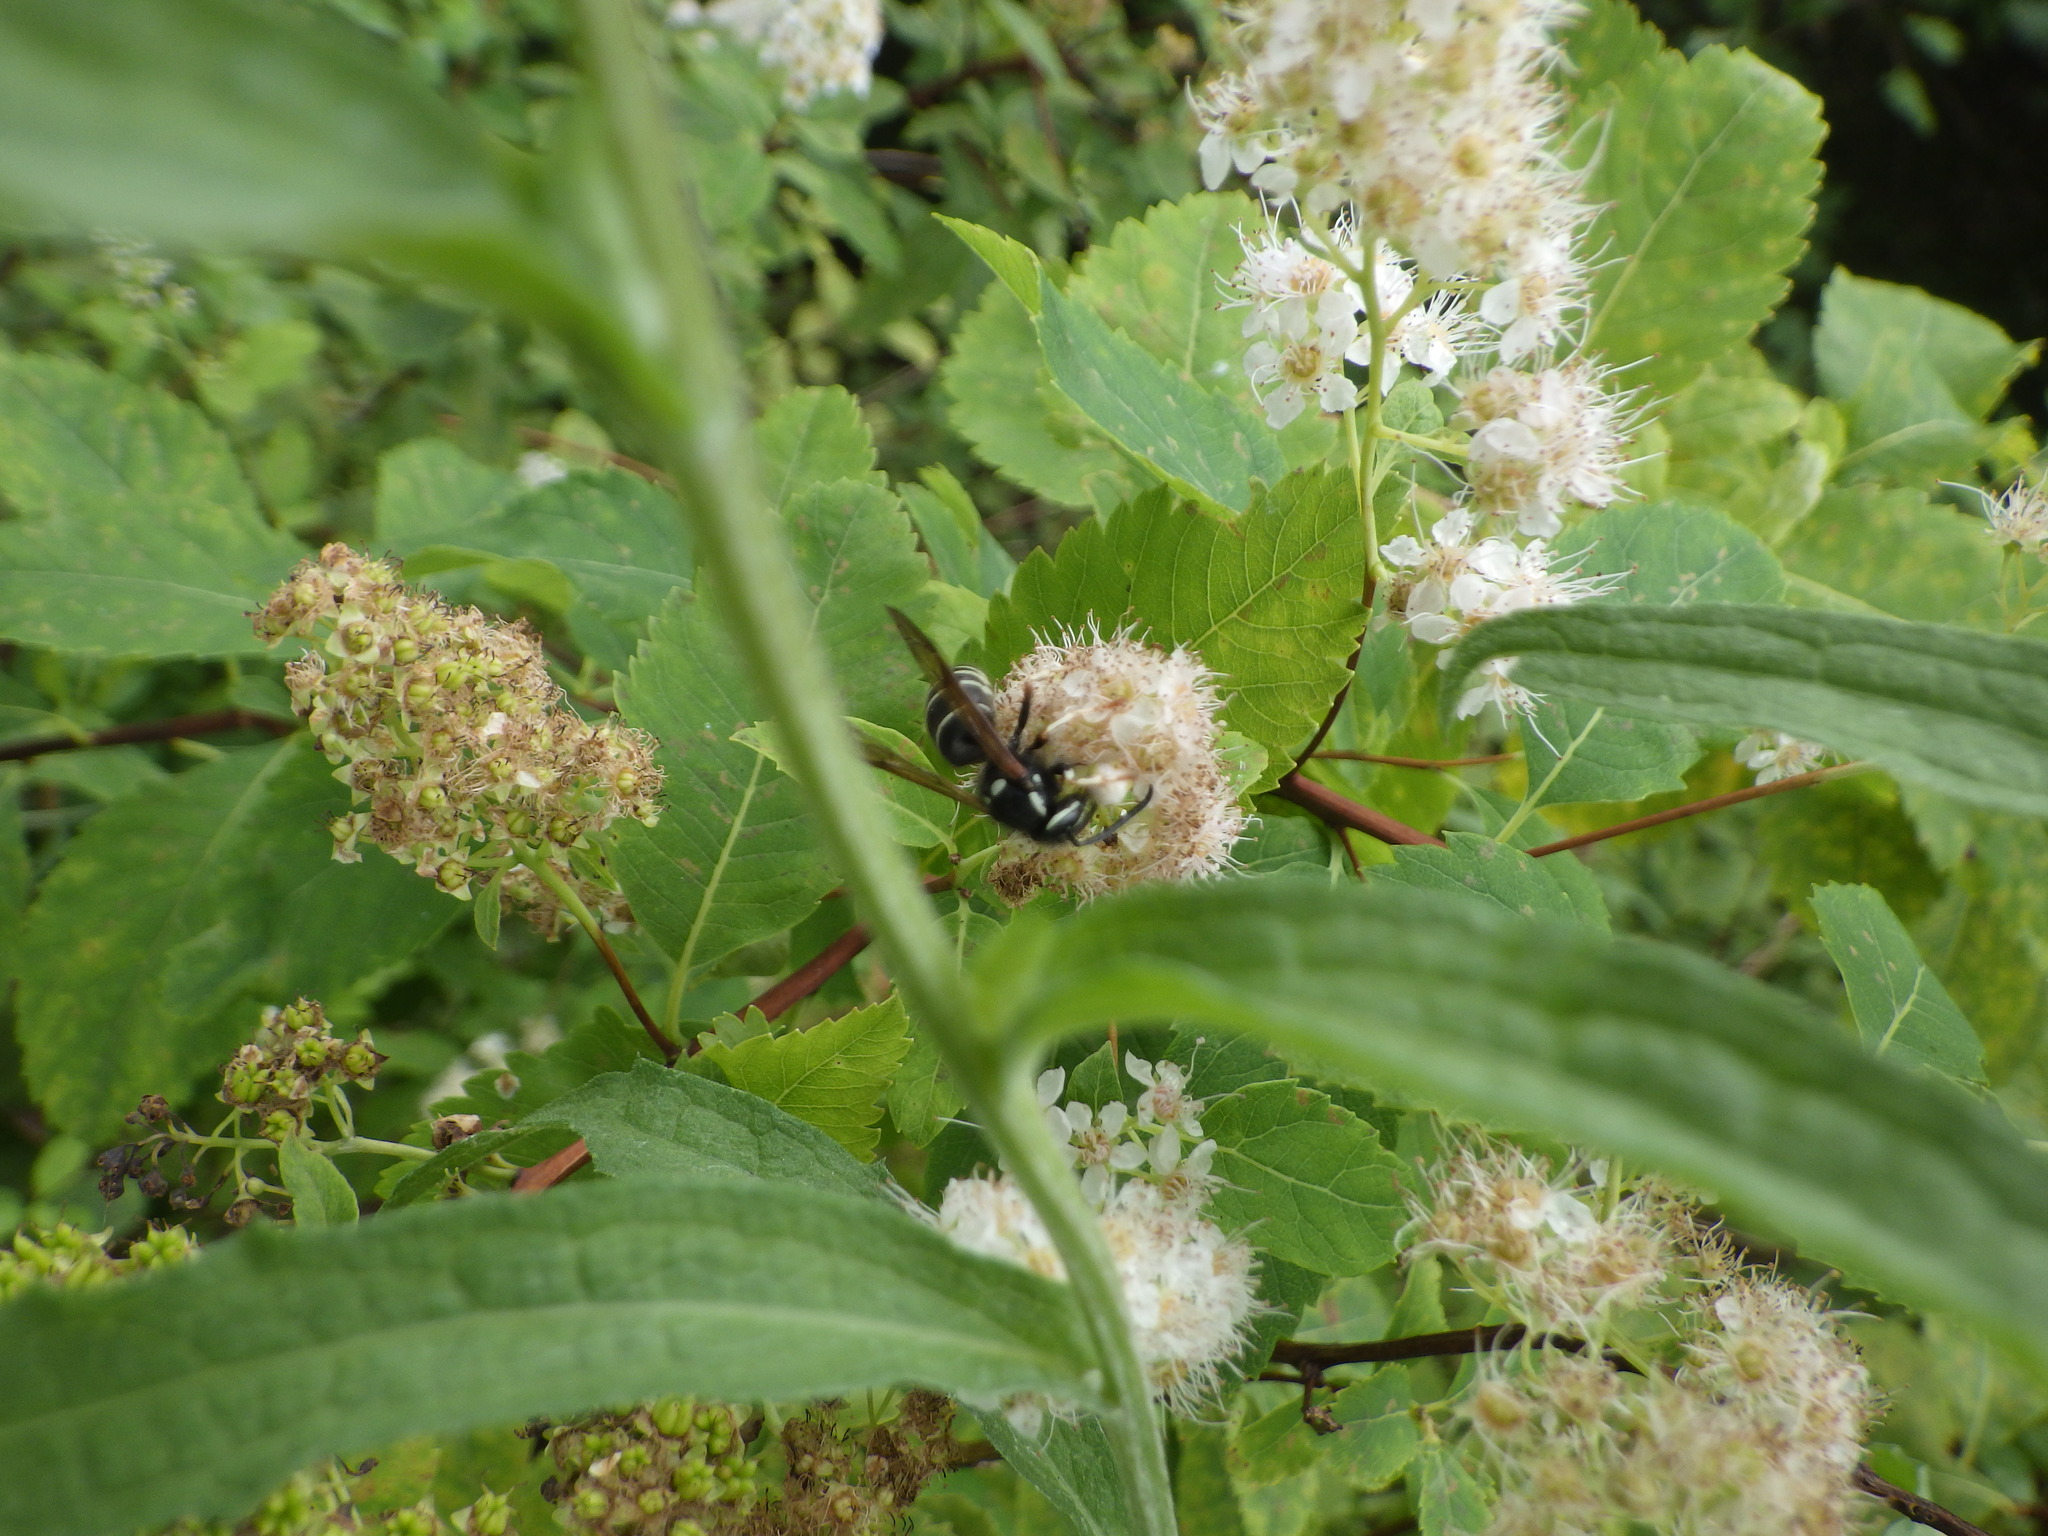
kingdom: Animalia
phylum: Arthropoda
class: Insecta
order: Hymenoptera
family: Vespidae
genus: Vespula
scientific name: Vespula consobrina
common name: Blackjacket
